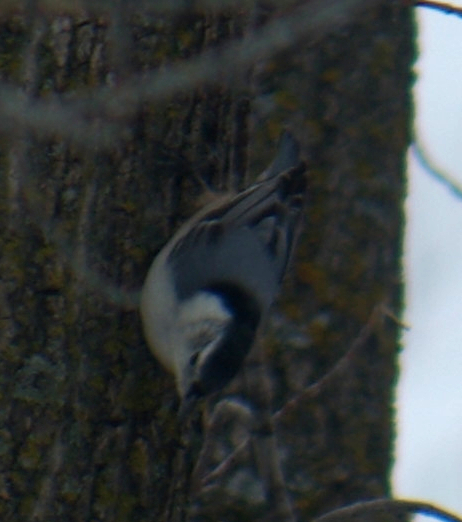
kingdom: Animalia
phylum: Chordata
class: Aves
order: Passeriformes
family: Sittidae
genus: Sitta
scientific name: Sitta carolinensis
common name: White-breasted nuthatch
